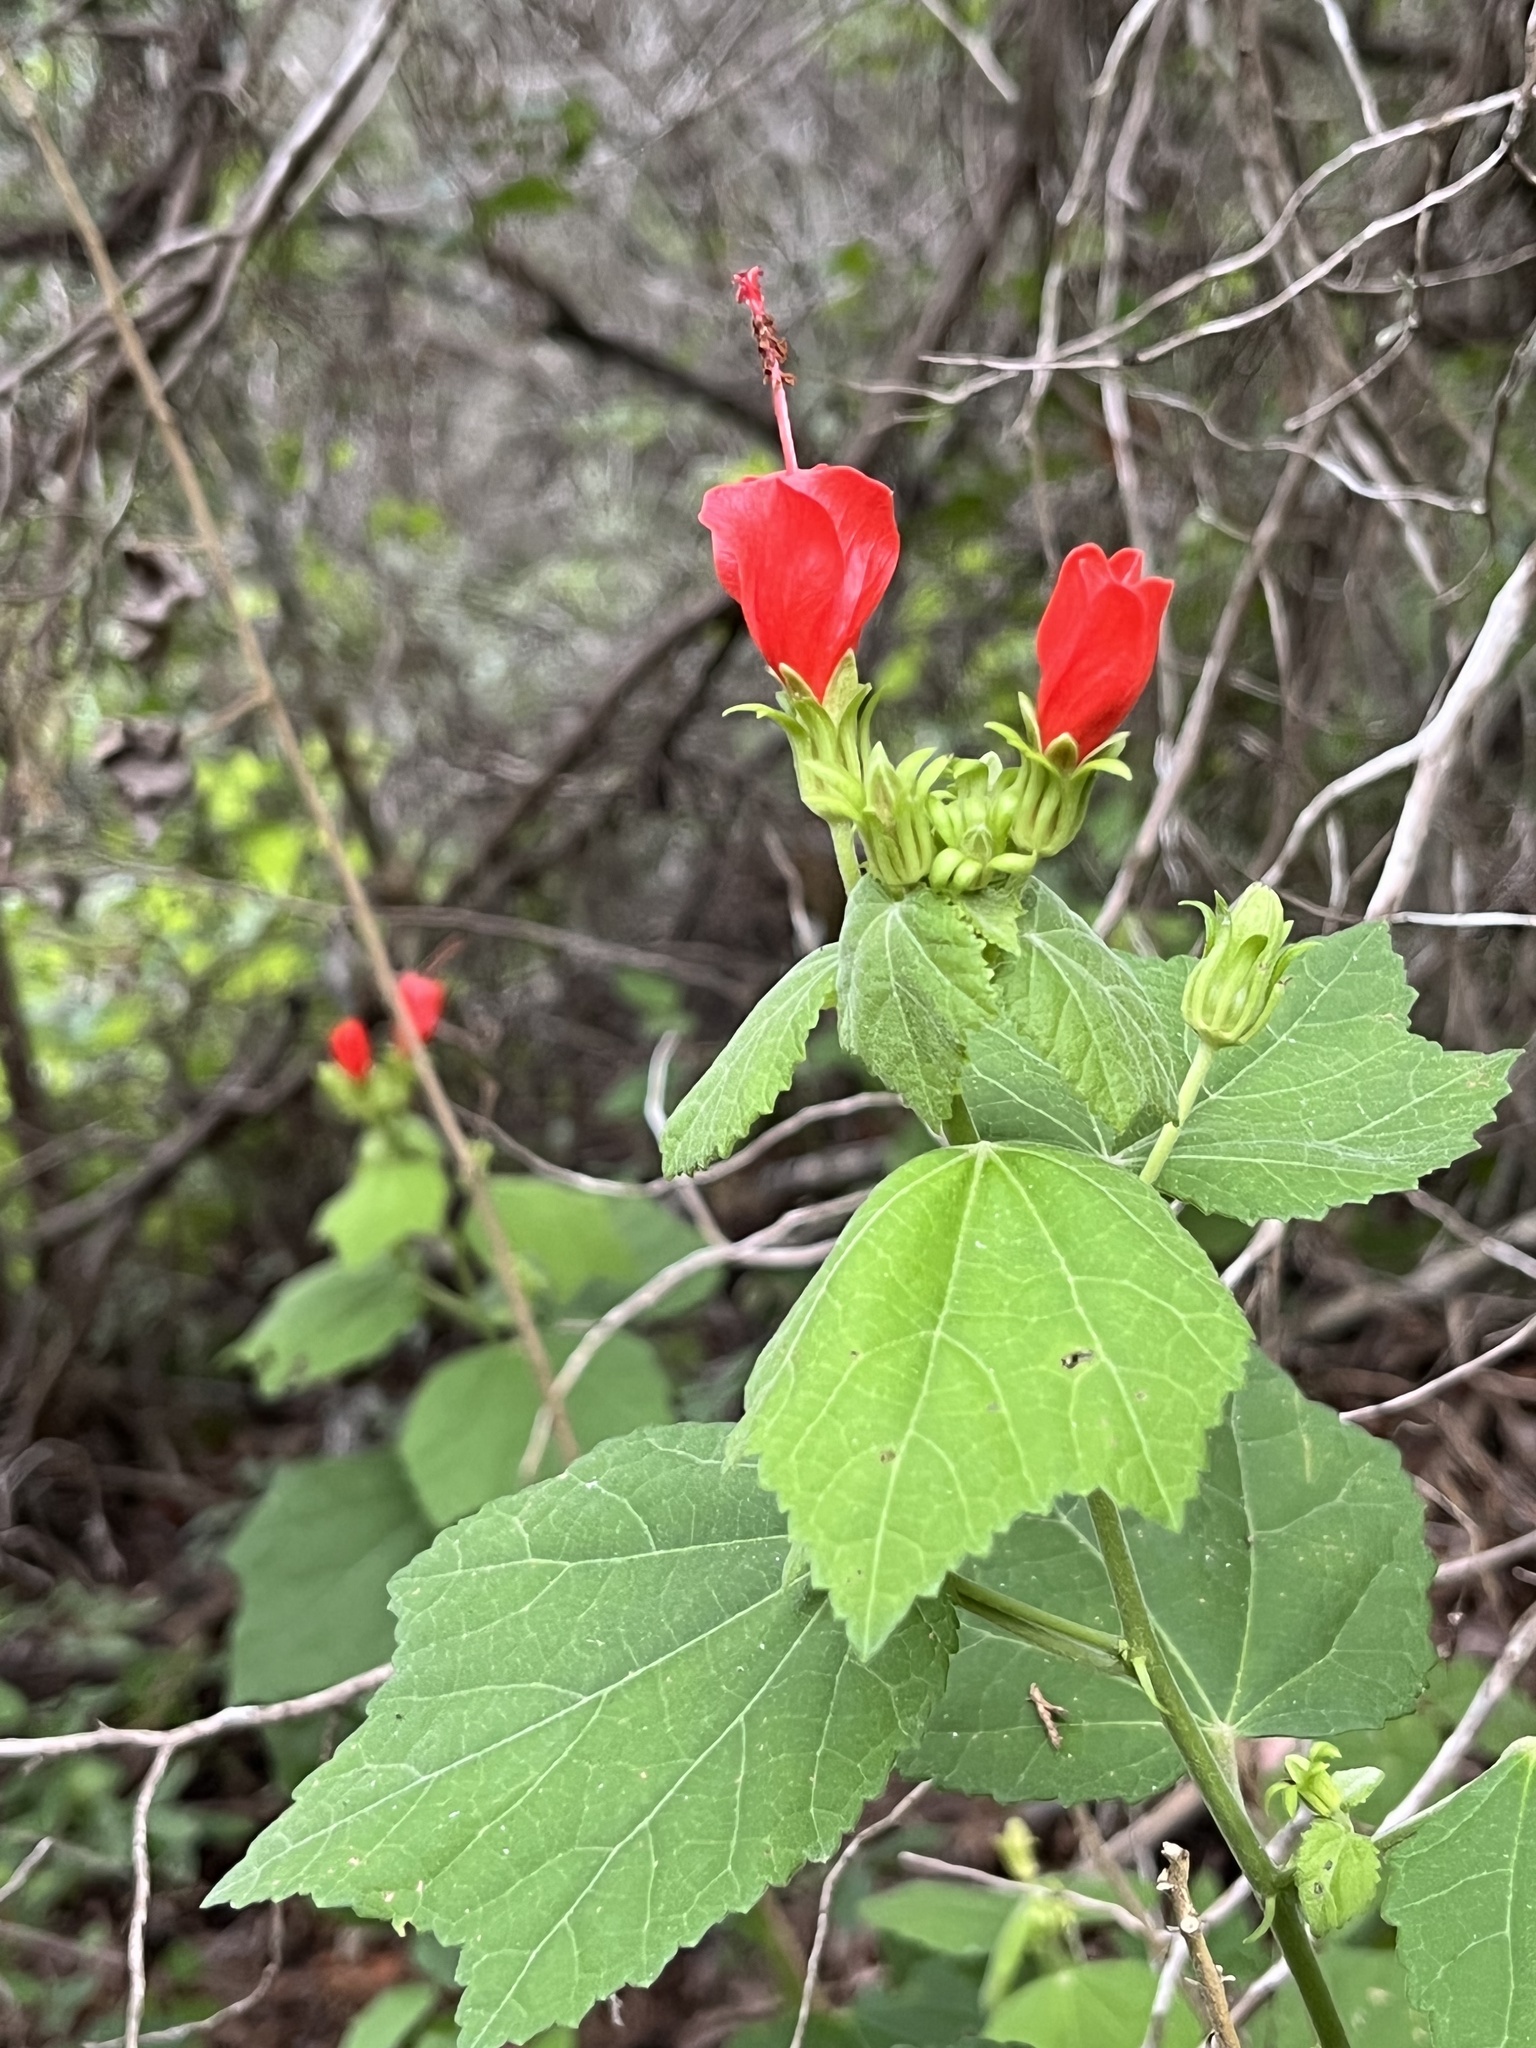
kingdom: Plantae
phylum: Tracheophyta
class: Magnoliopsida
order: Malvales
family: Malvaceae
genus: Malvaviscus
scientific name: Malvaviscus arboreus
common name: Wax mallow
